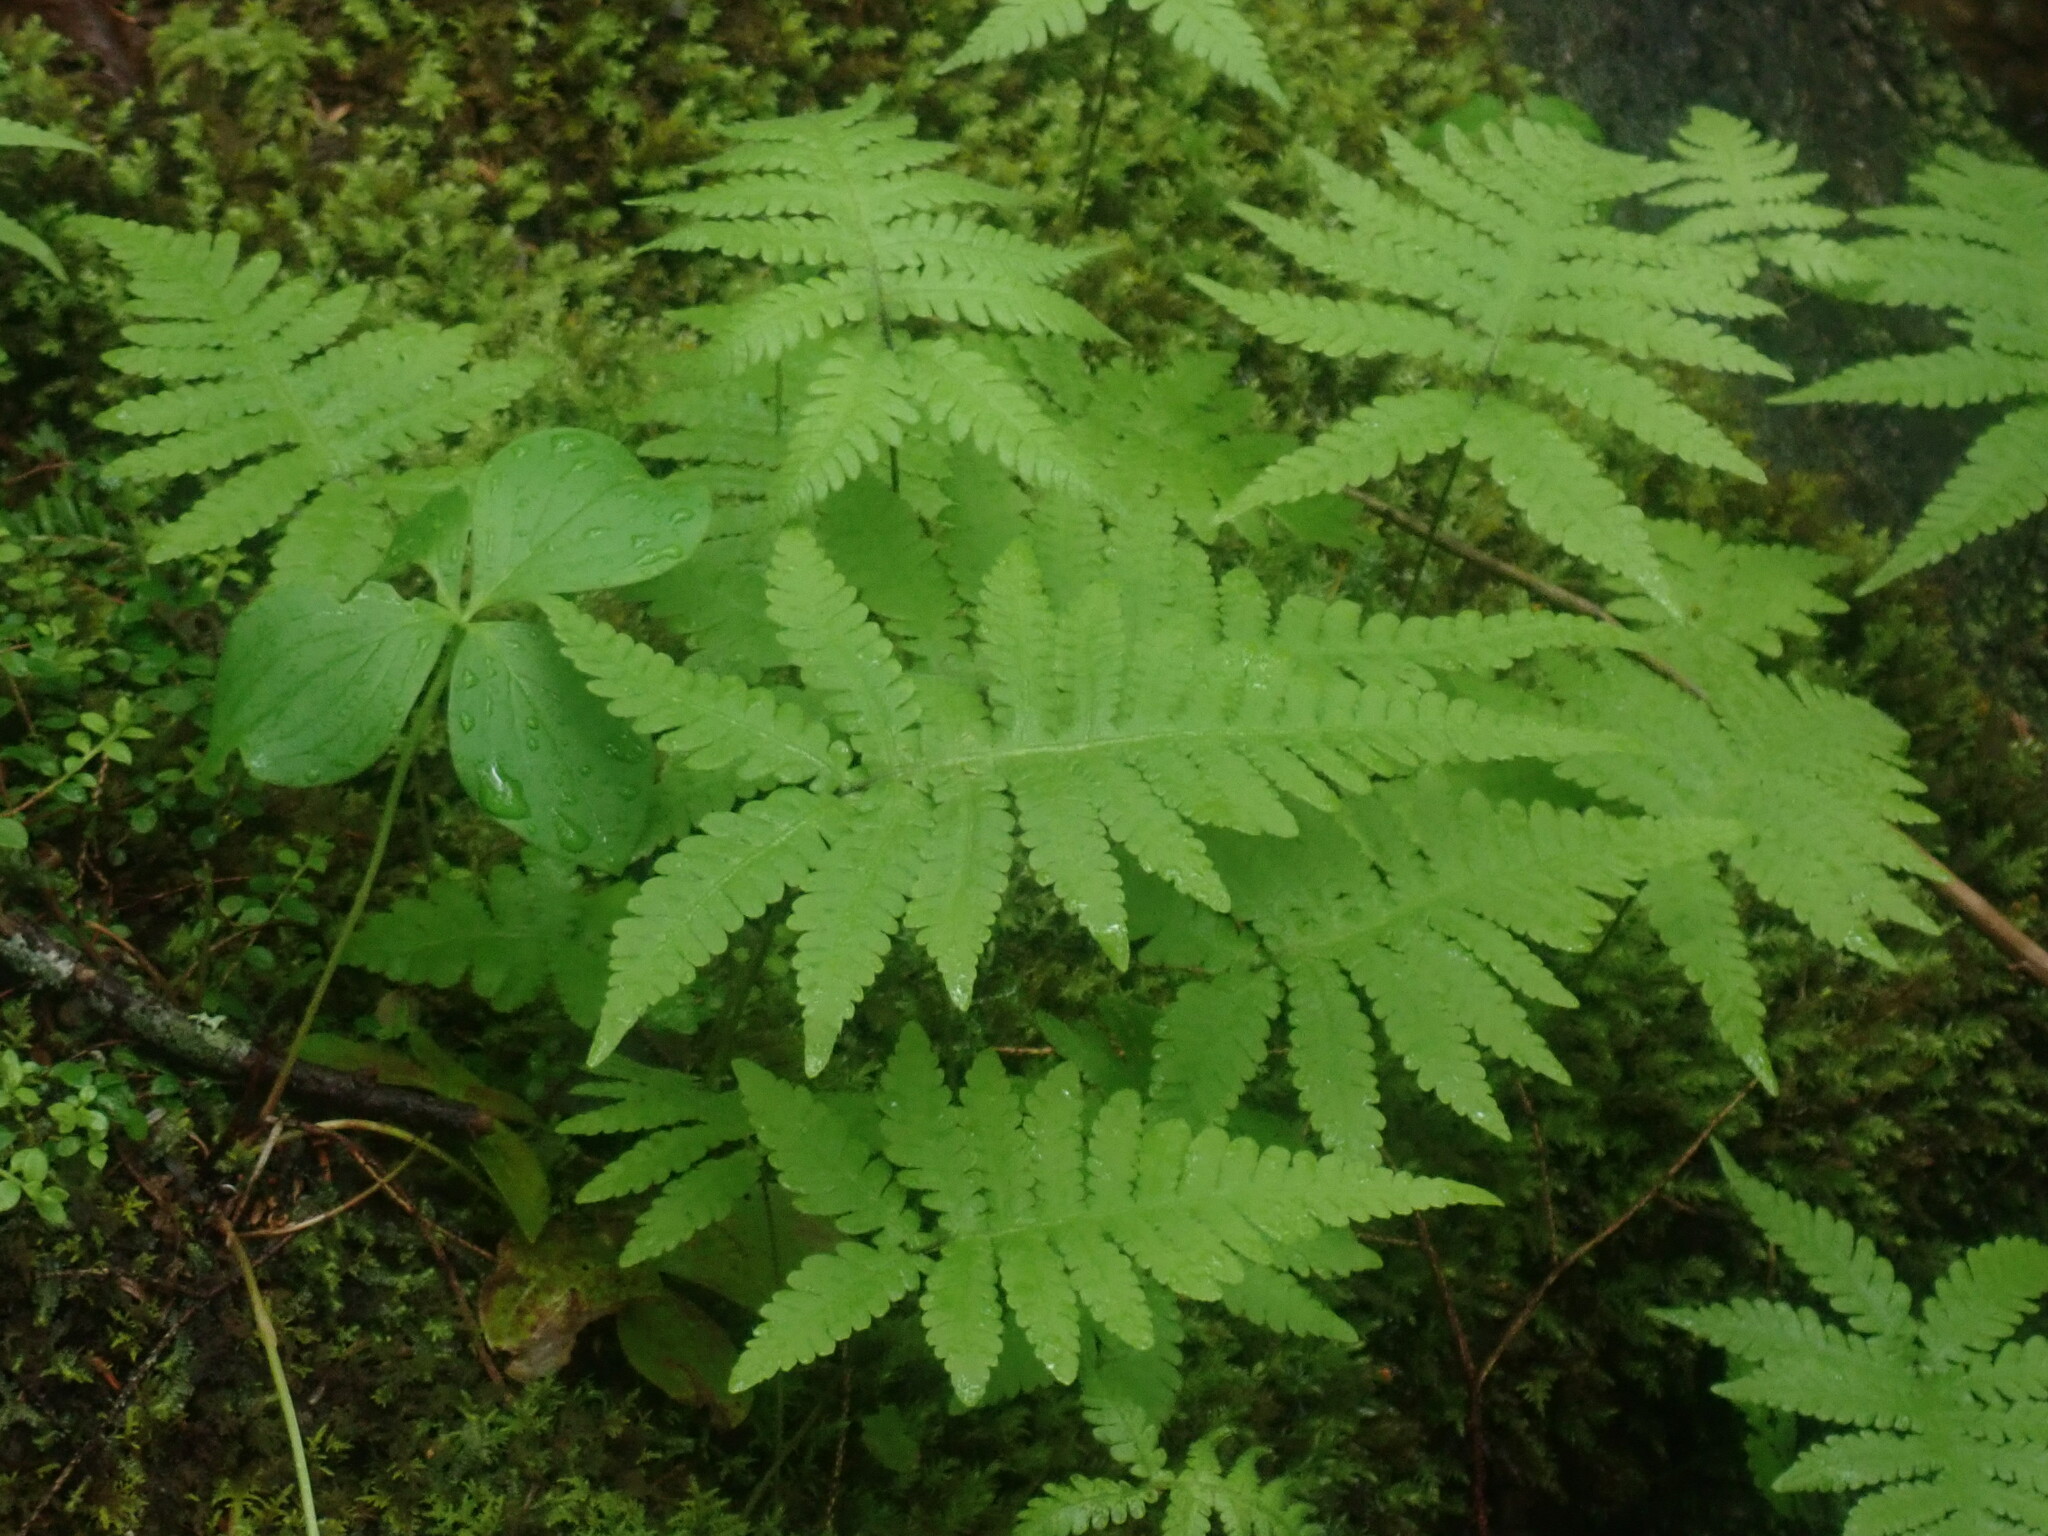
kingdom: Plantae
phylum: Tracheophyta
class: Polypodiopsida
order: Polypodiales
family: Thelypteridaceae
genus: Phegopteris
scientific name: Phegopteris connectilis
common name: Beech fern
